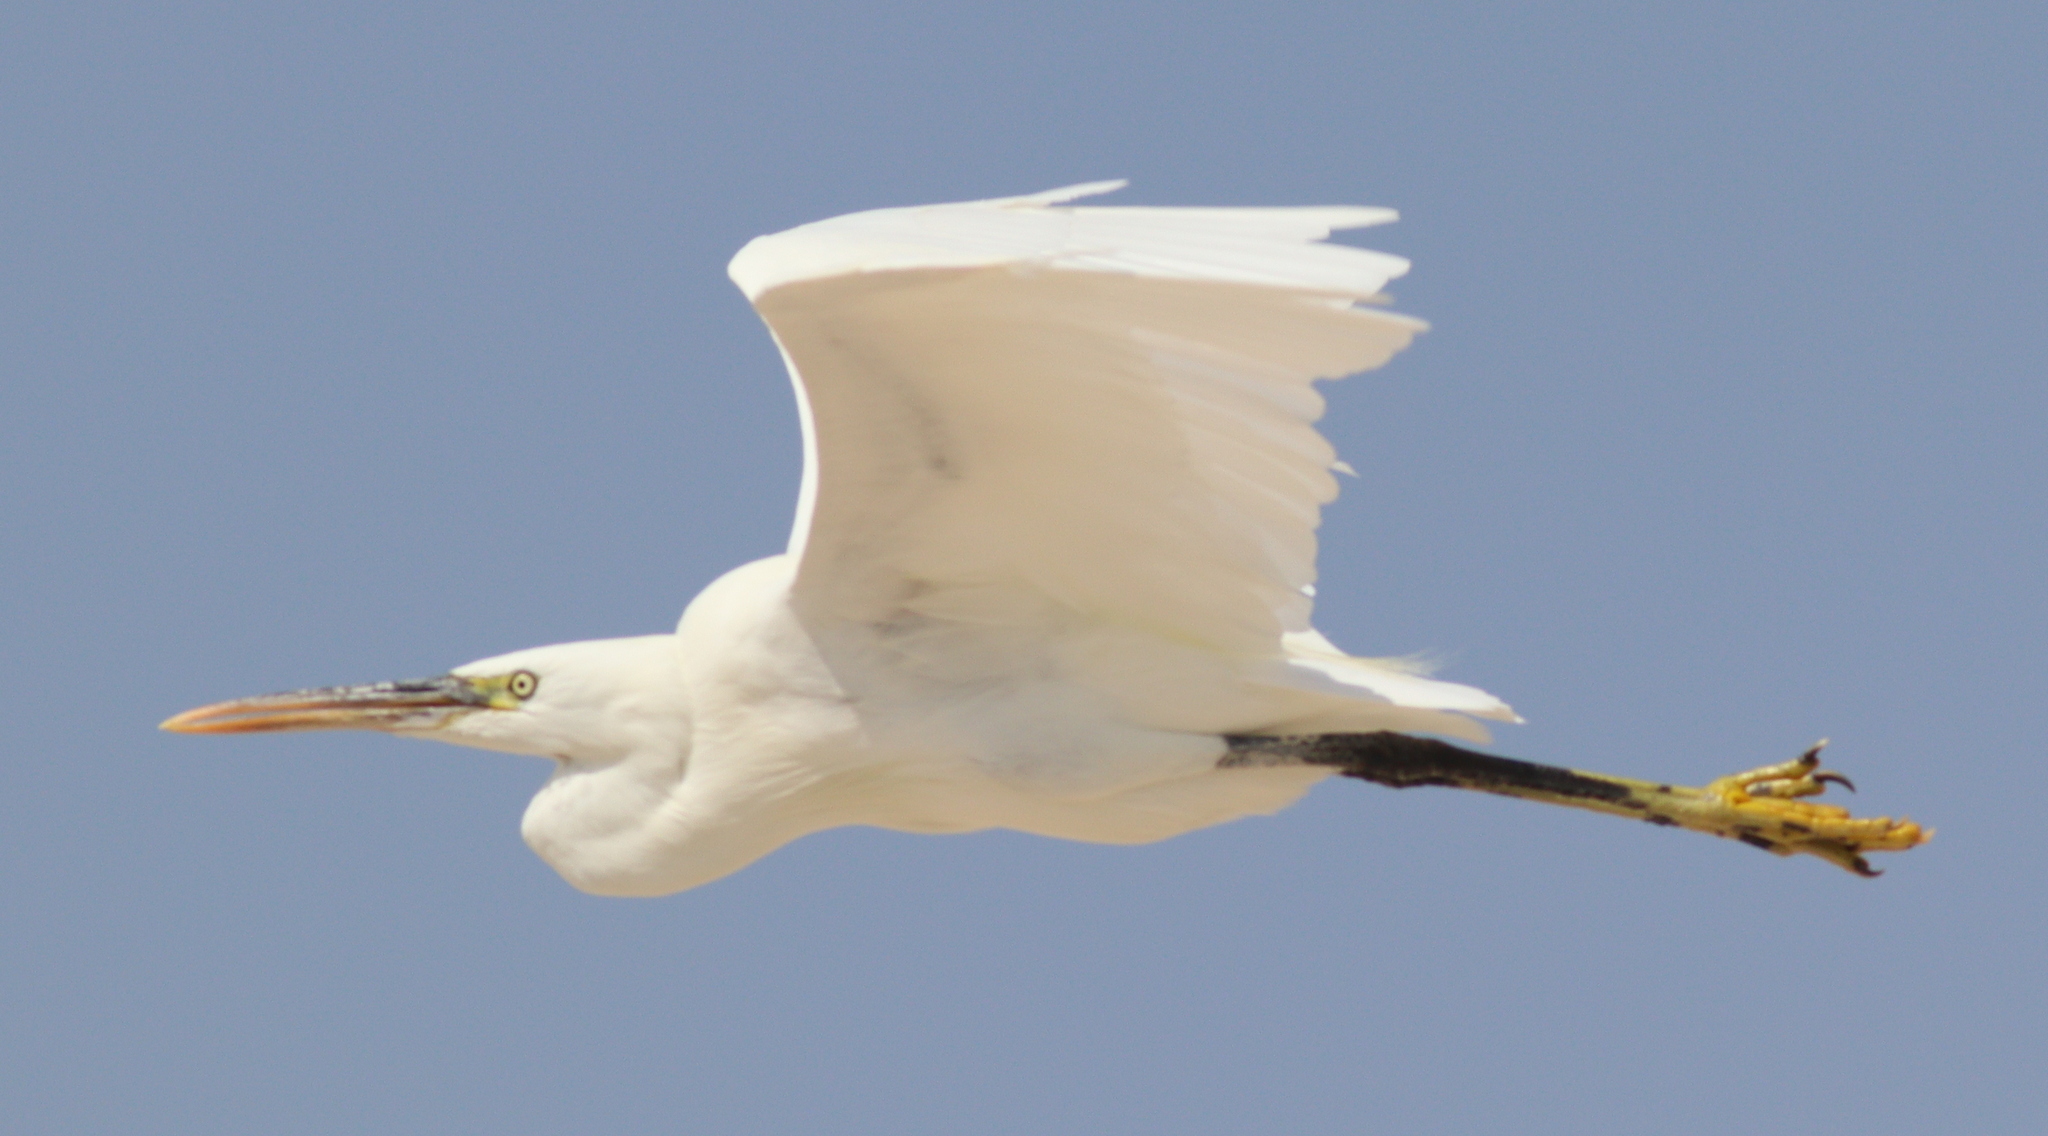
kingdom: Animalia
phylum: Chordata
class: Aves
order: Pelecaniformes
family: Ardeidae
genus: Egretta
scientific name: Egretta gularis
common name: Western reef-heron
